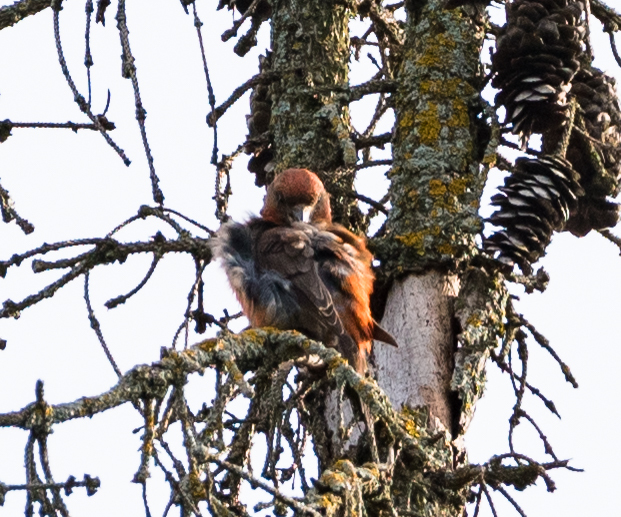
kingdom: Animalia
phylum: Chordata
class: Aves
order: Passeriformes
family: Fringillidae
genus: Loxia
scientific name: Loxia curvirostra
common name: Red crossbill
